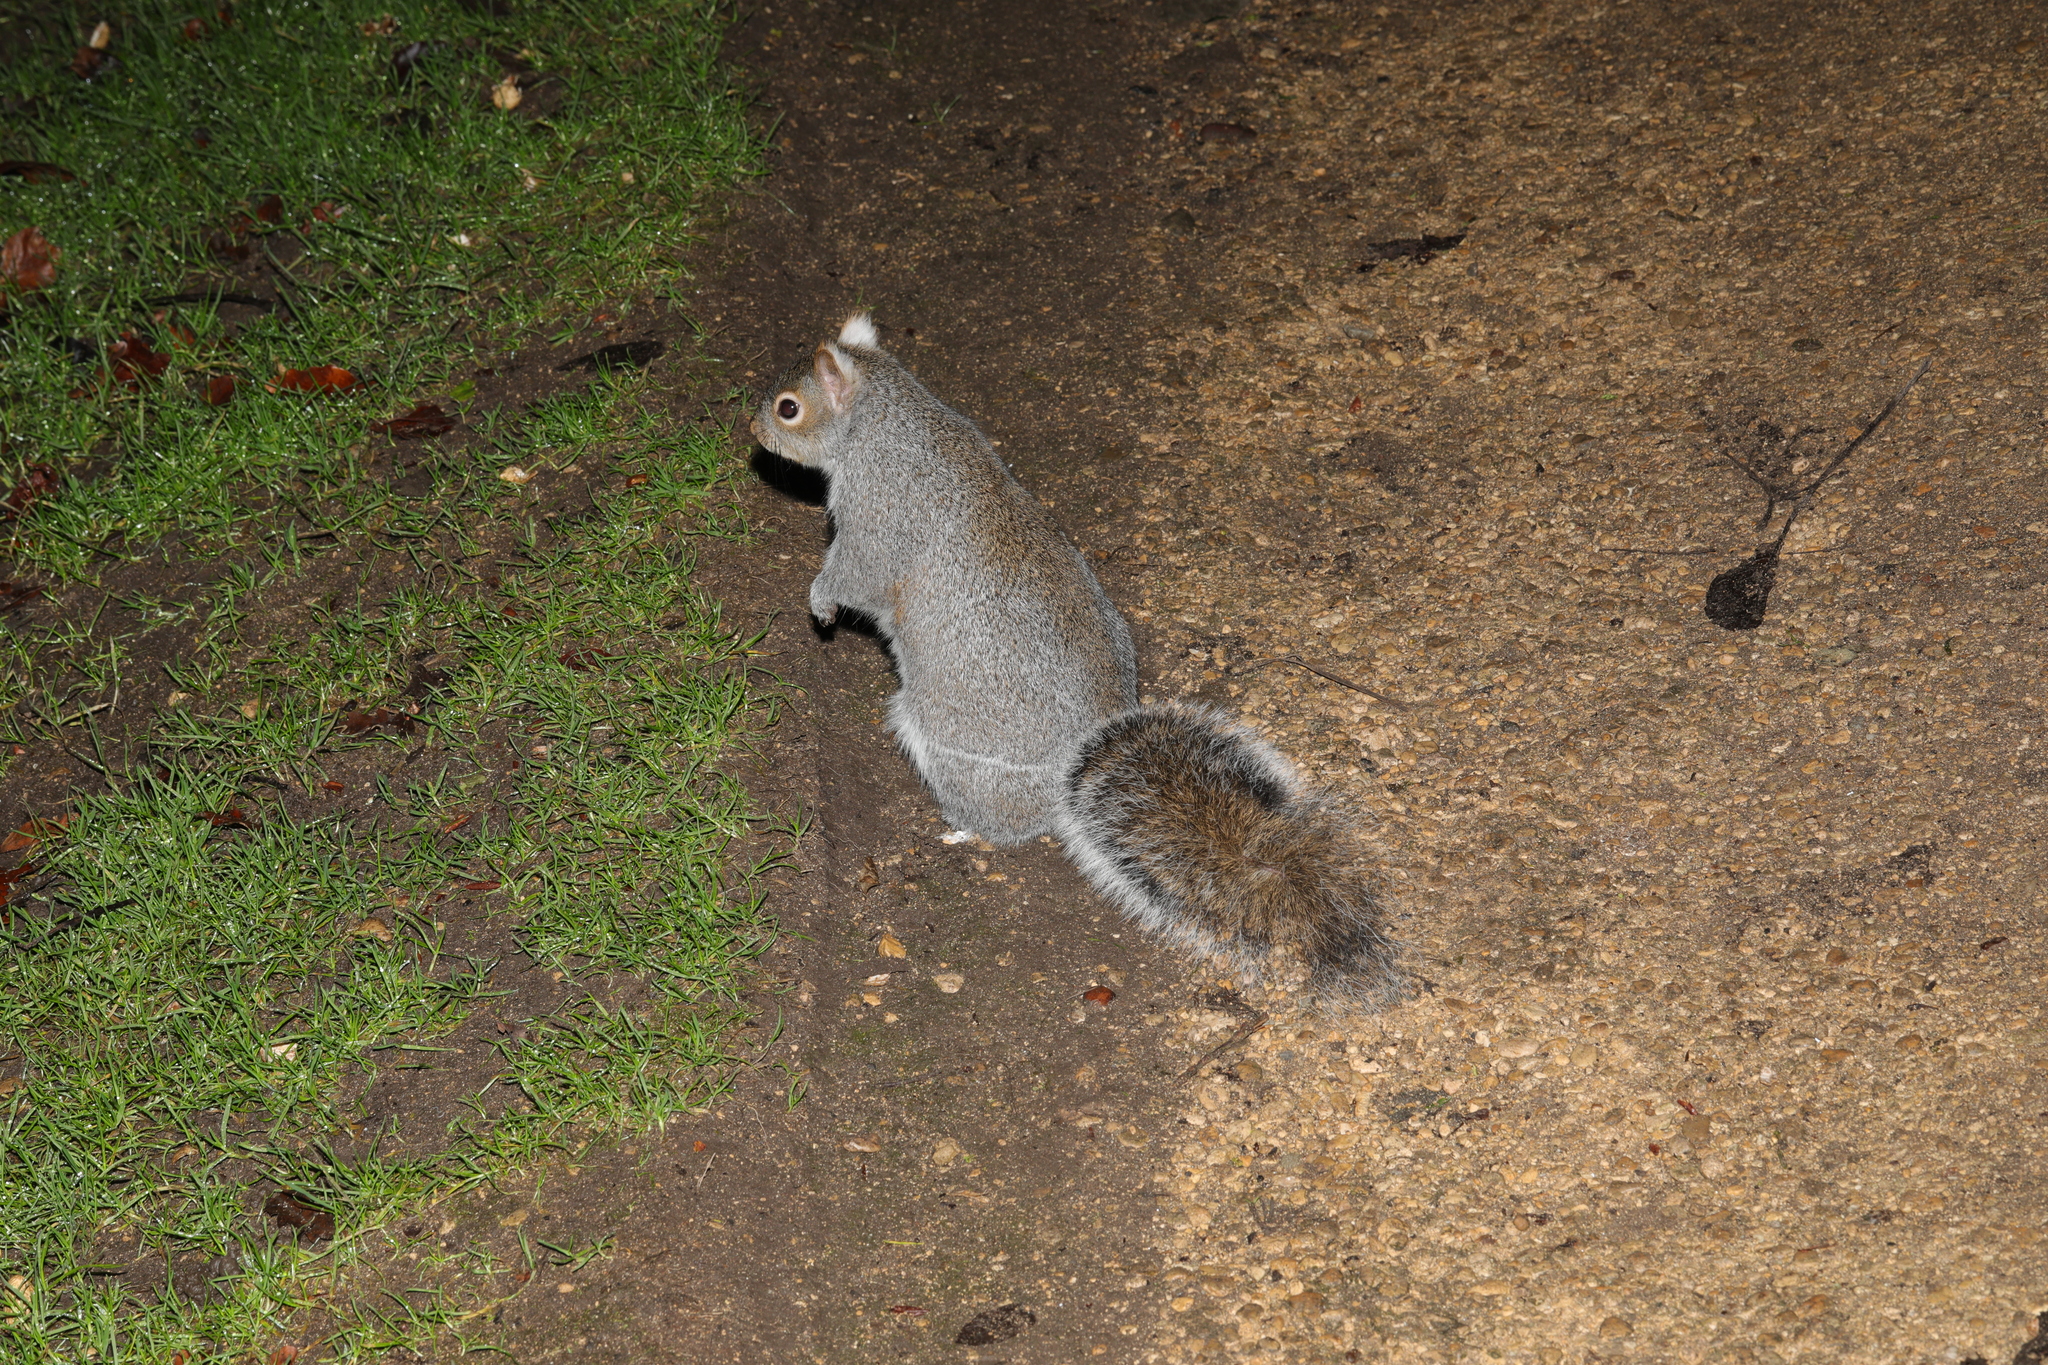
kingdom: Animalia
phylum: Chordata
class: Mammalia
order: Rodentia
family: Sciuridae
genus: Sciurus
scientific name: Sciurus carolinensis
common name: Eastern gray squirrel
